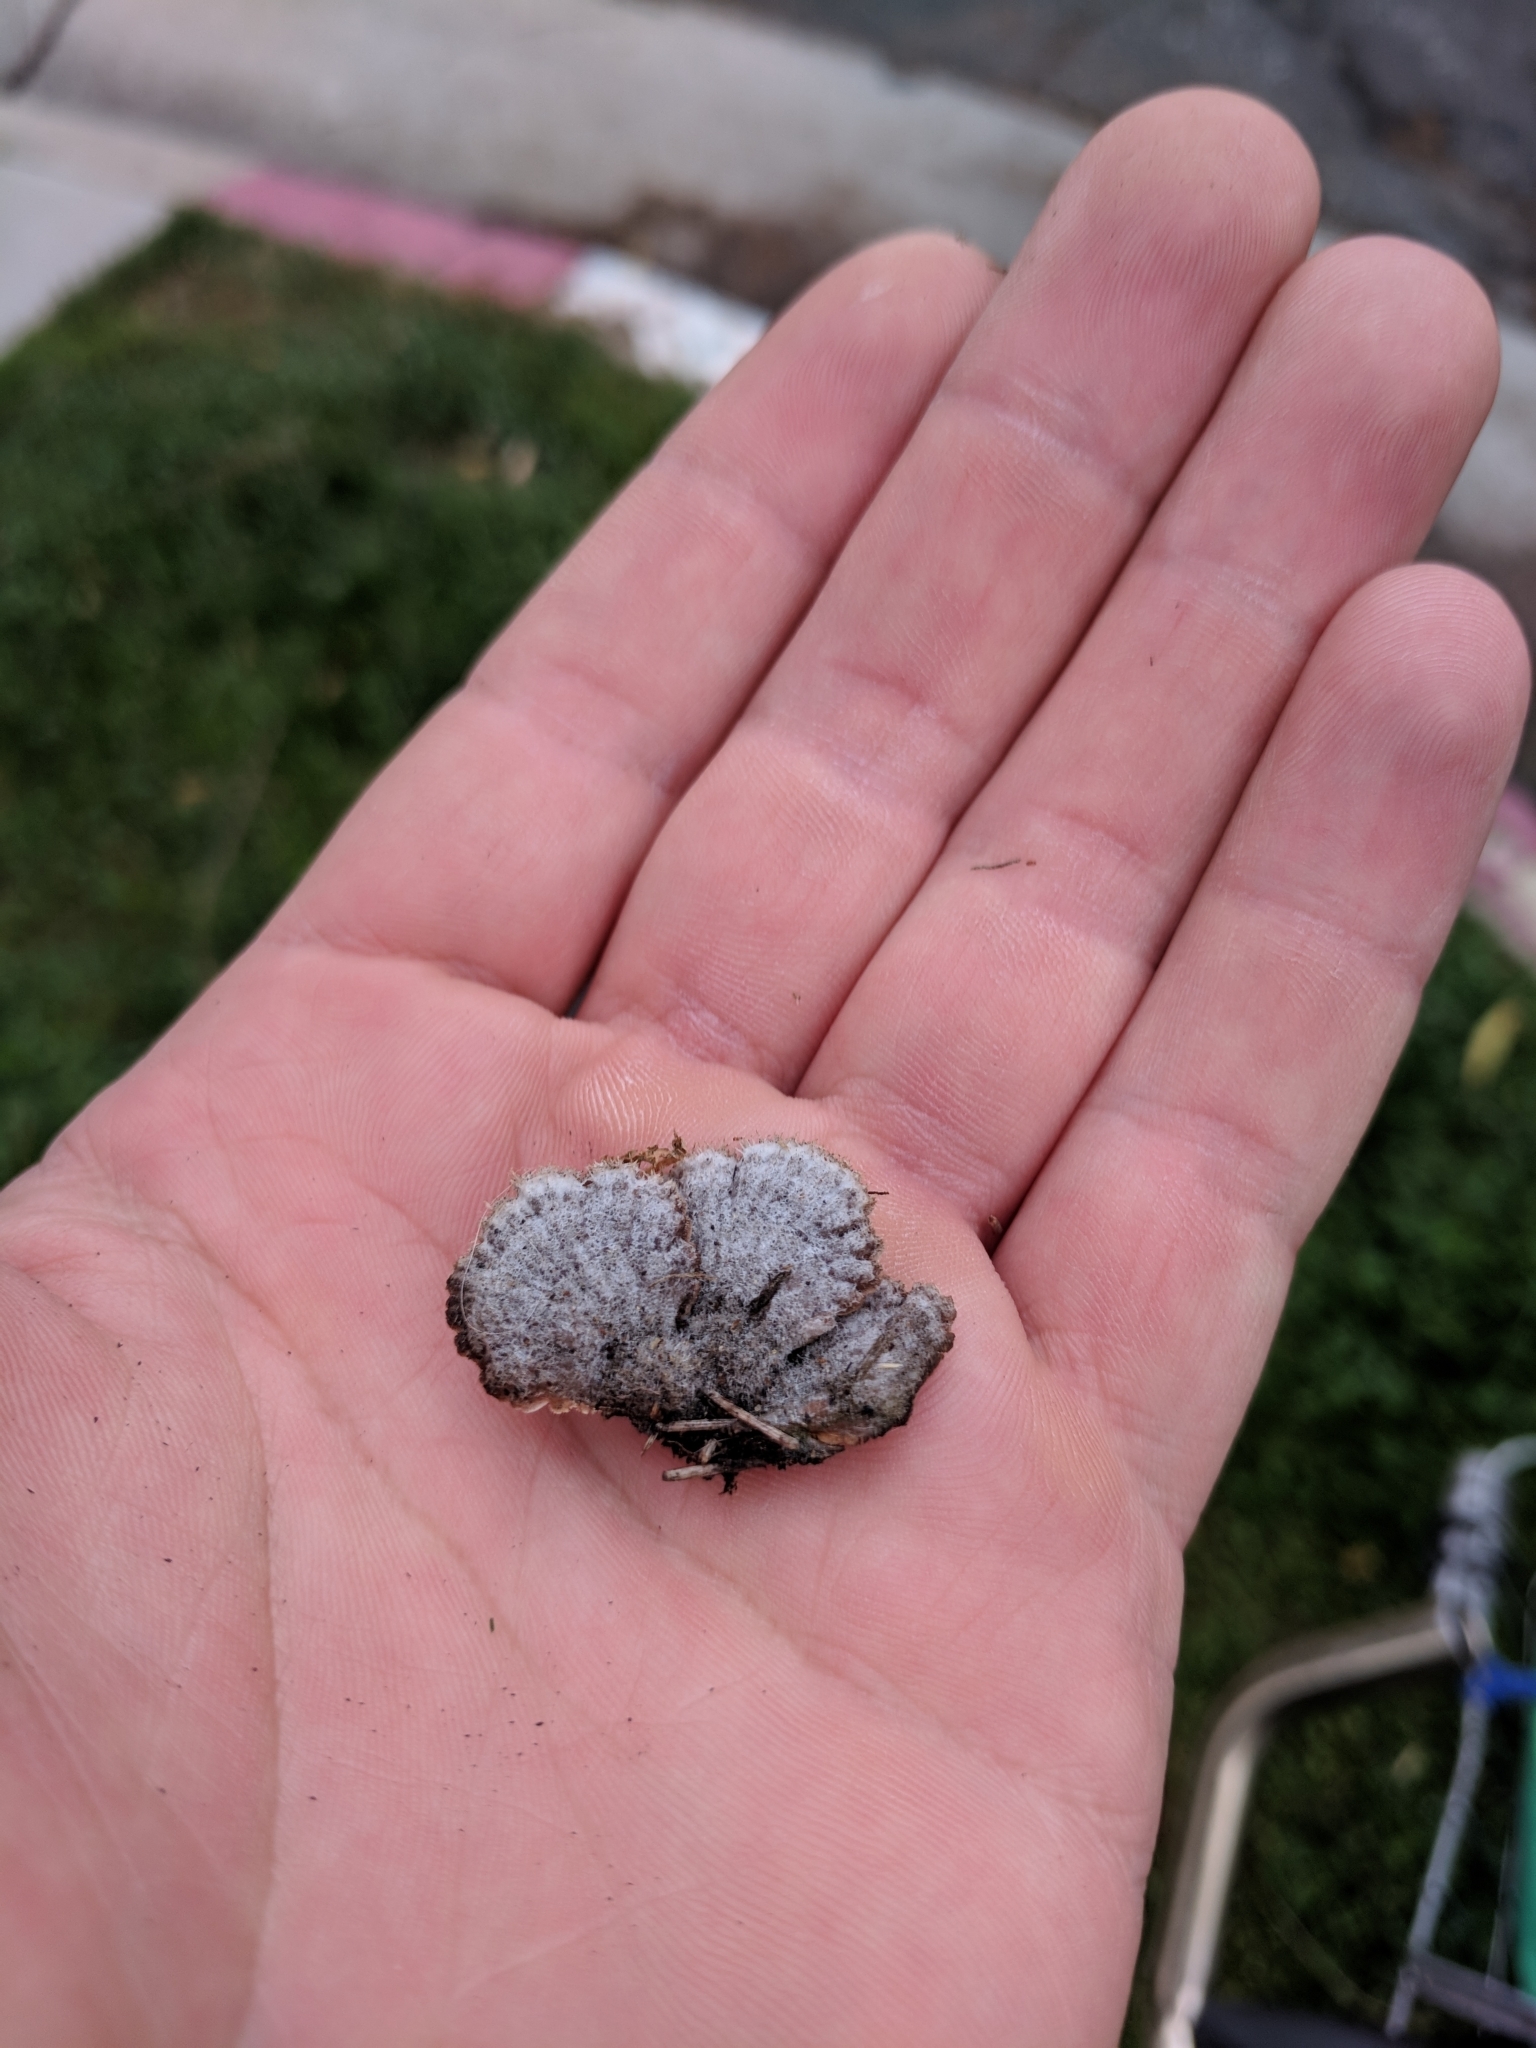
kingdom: Fungi
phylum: Basidiomycota
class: Agaricomycetes
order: Agaricales
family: Schizophyllaceae
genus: Schizophyllum
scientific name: Schizophyllum commune
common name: Common porecrust
